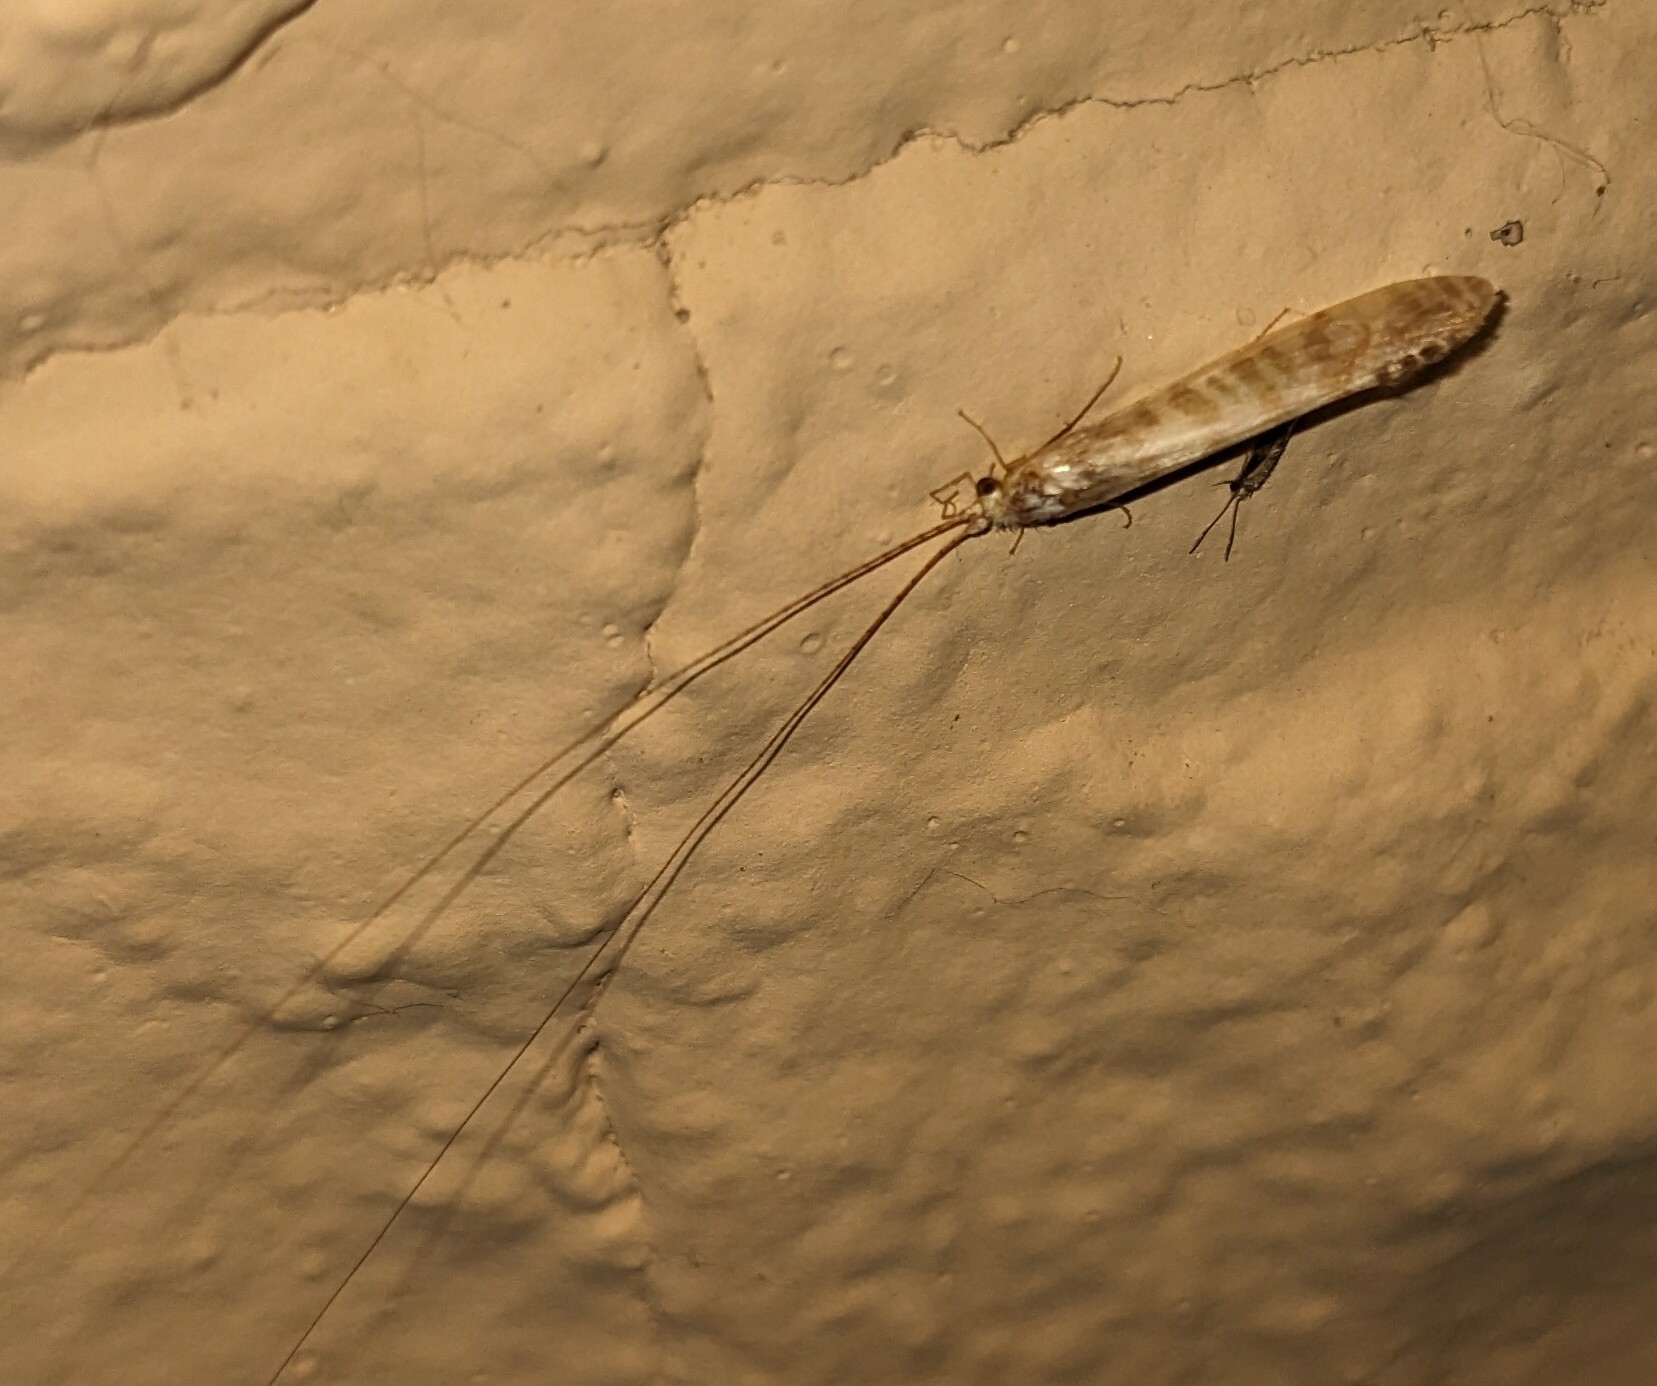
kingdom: Animalia
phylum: Arthropoda
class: Insecta
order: Trichoptera
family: Leptoceridae
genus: Nectopsyche
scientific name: Nectopsyche exquisita
